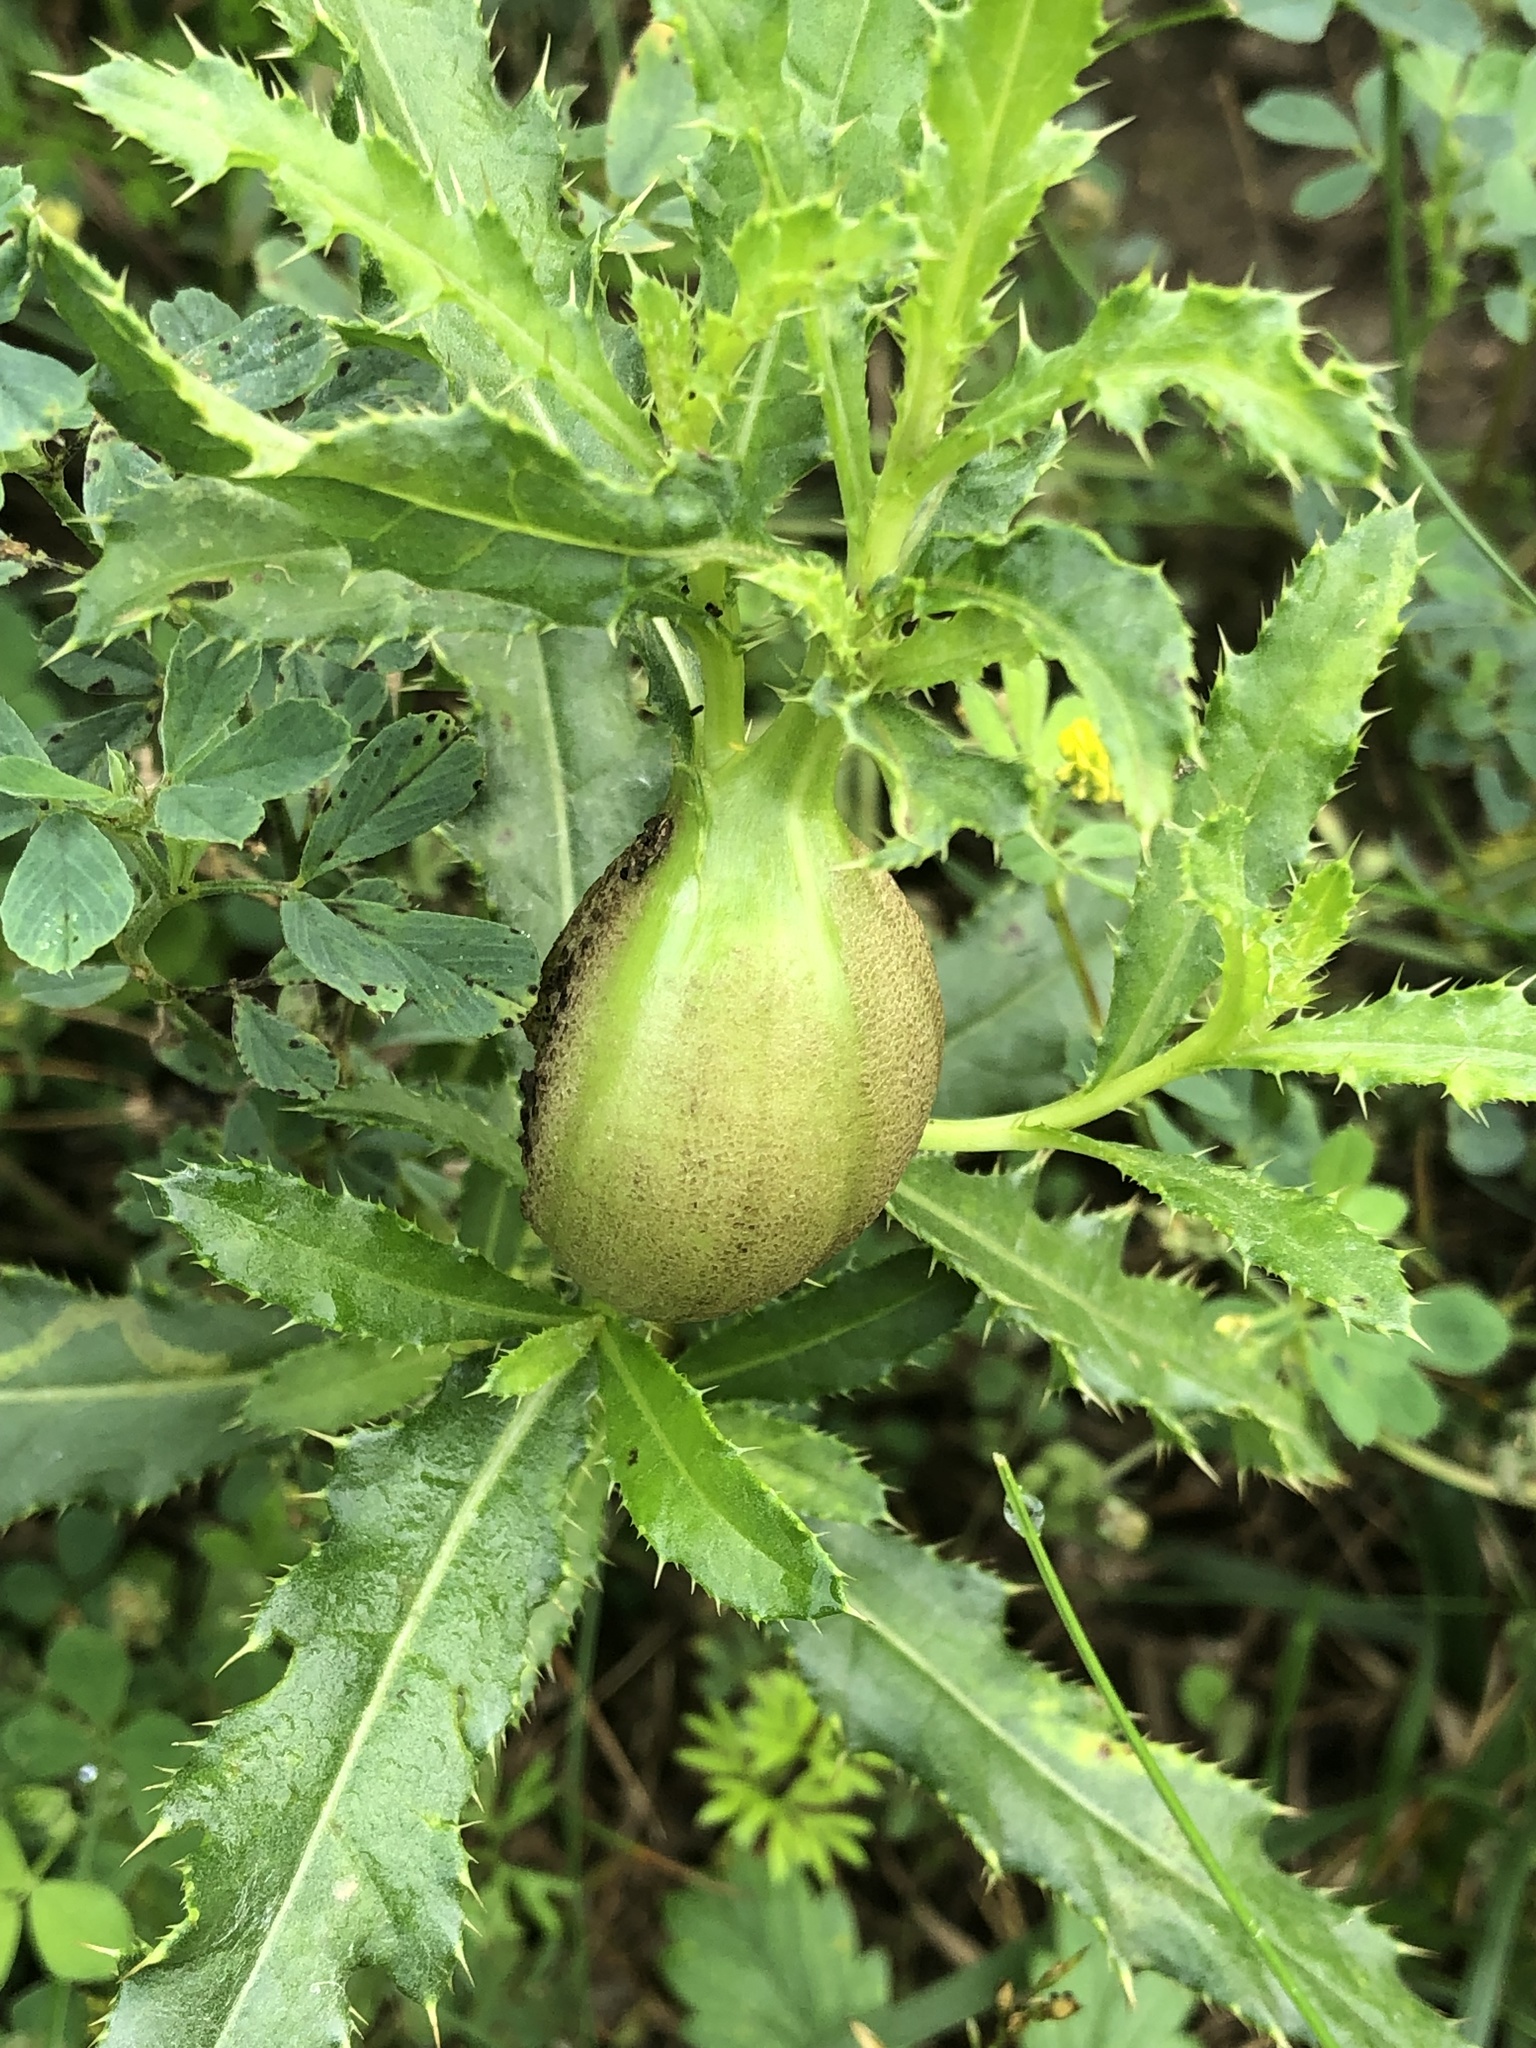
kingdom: Animalia
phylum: Arthropoda
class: Insecta
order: Diptera
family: Tephritidae
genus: Urophora
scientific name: Urophora cardui
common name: Fruit fly
